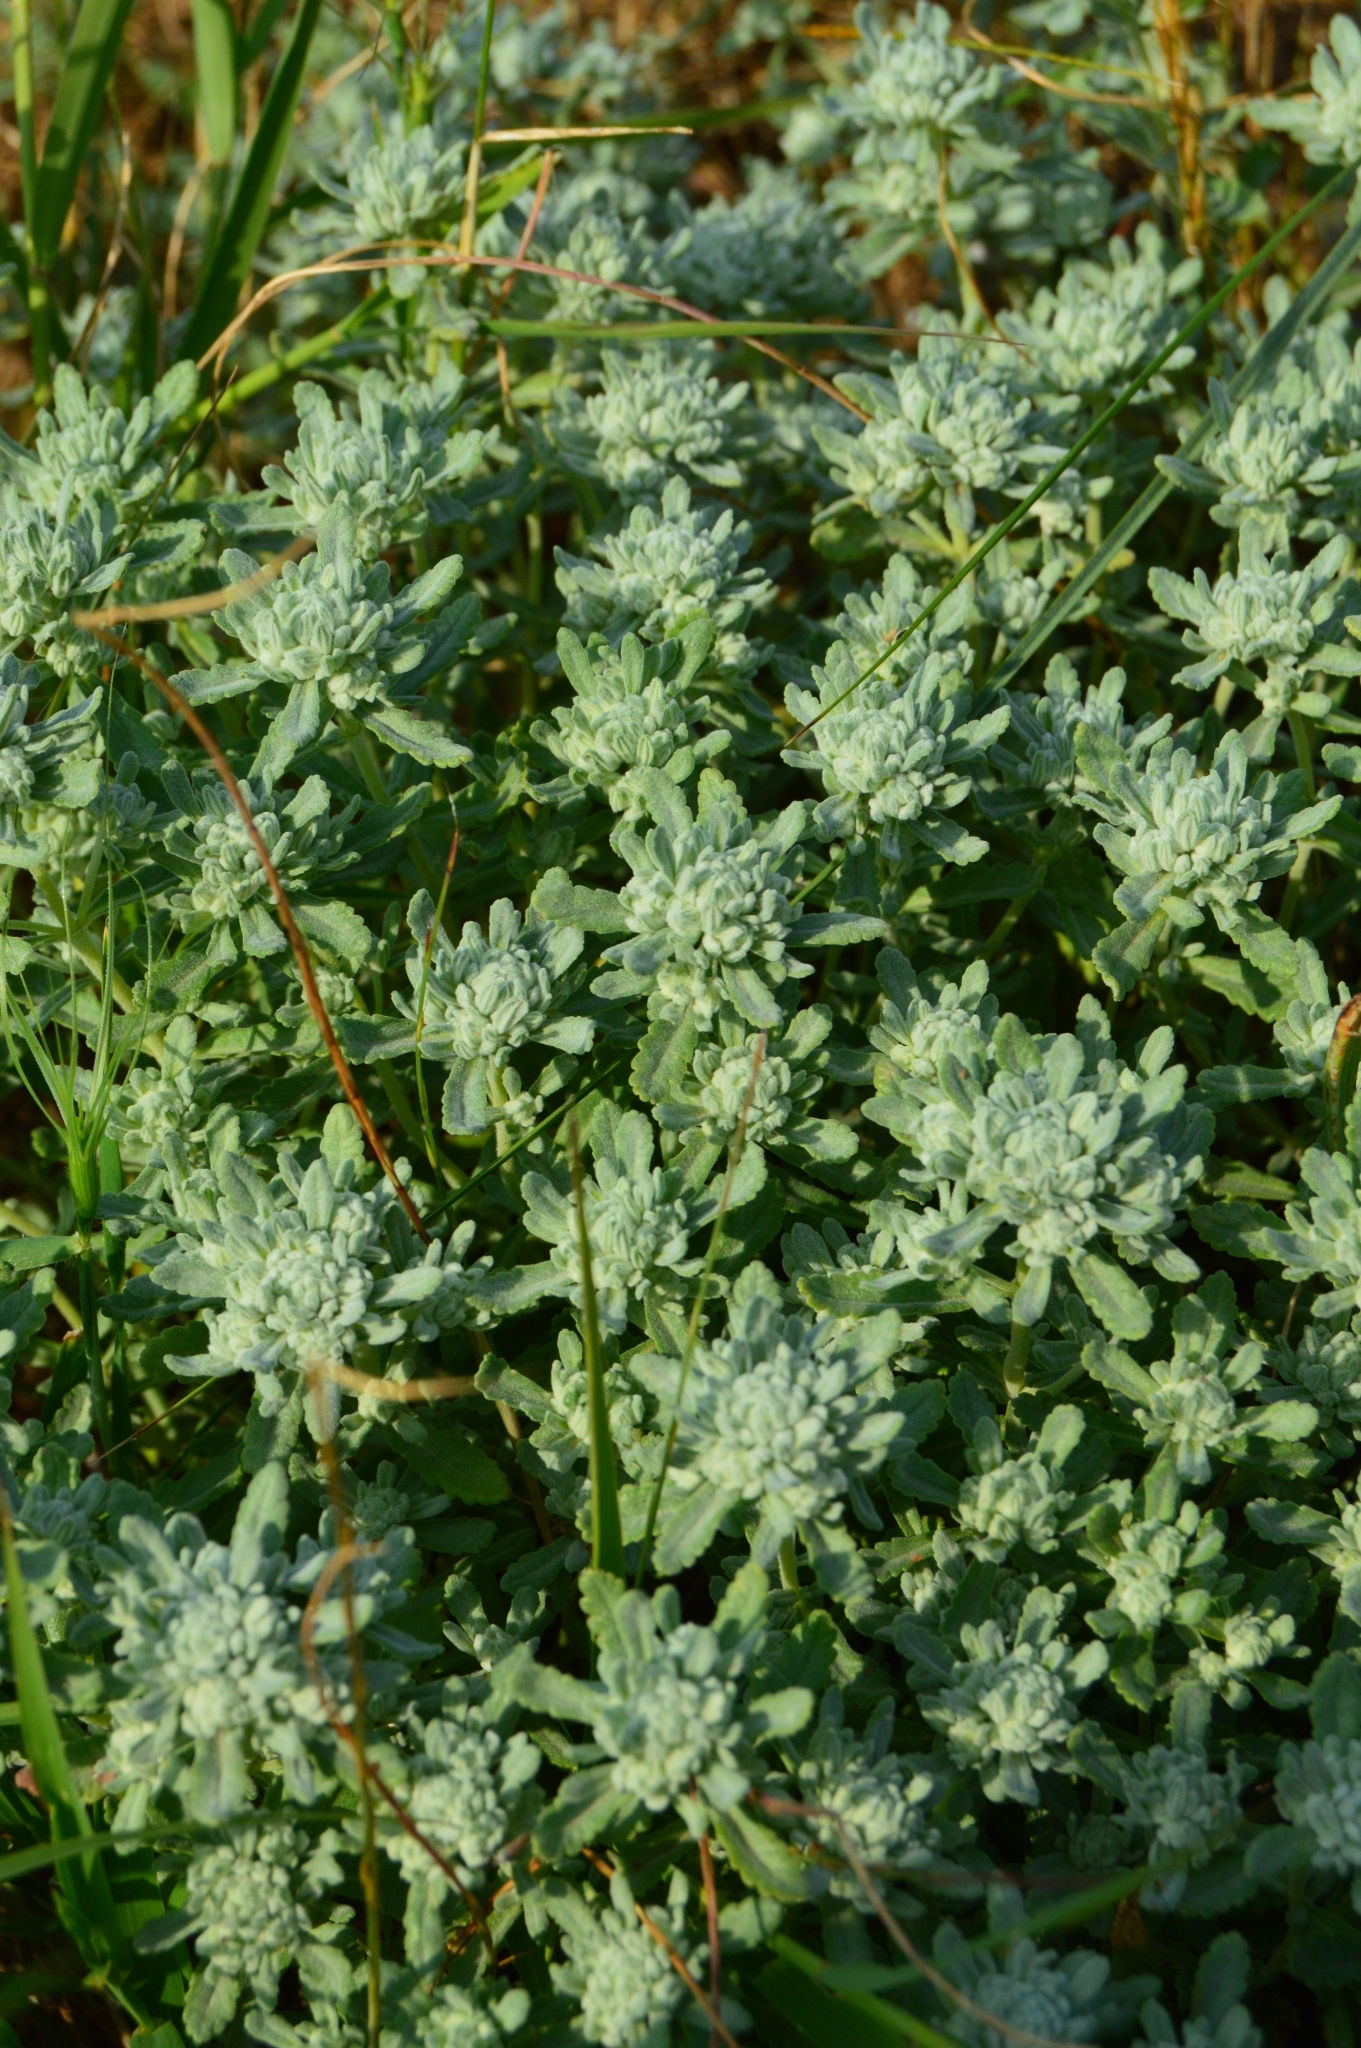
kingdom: Plantae
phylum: Tracheophyta
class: Magnoliopsida
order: Lamiales
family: Lamiaceae
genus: Teucrium
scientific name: Teucrium polium
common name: Poley
